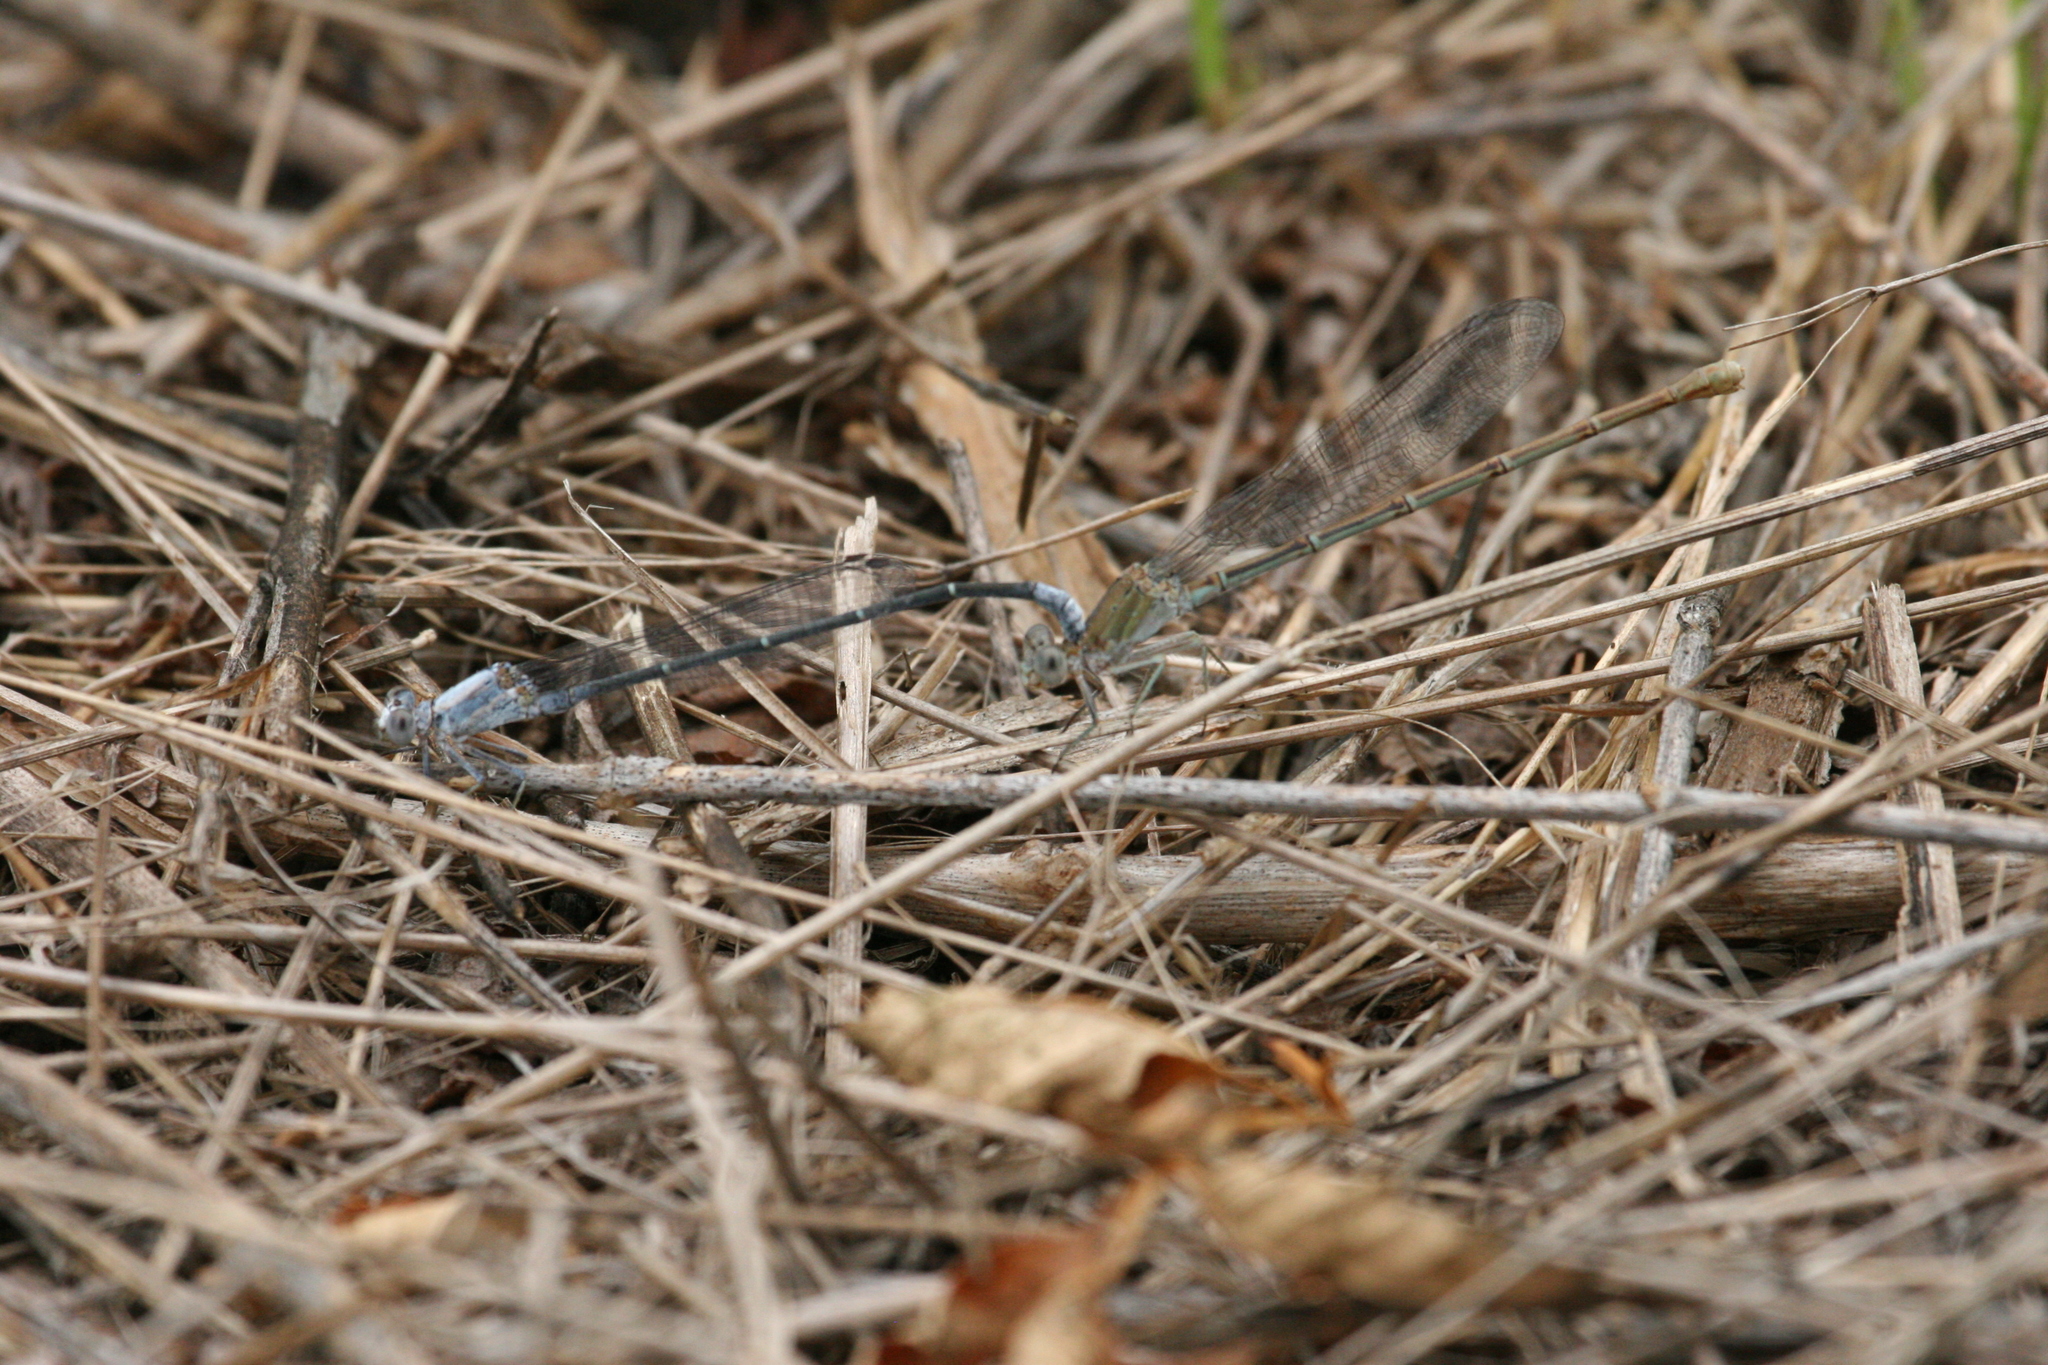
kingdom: Animalia
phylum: Arthropoda
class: Insecta
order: Odonata
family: Coenagrionidae
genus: Argia
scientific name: Argia moesta
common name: Powdered dancer
